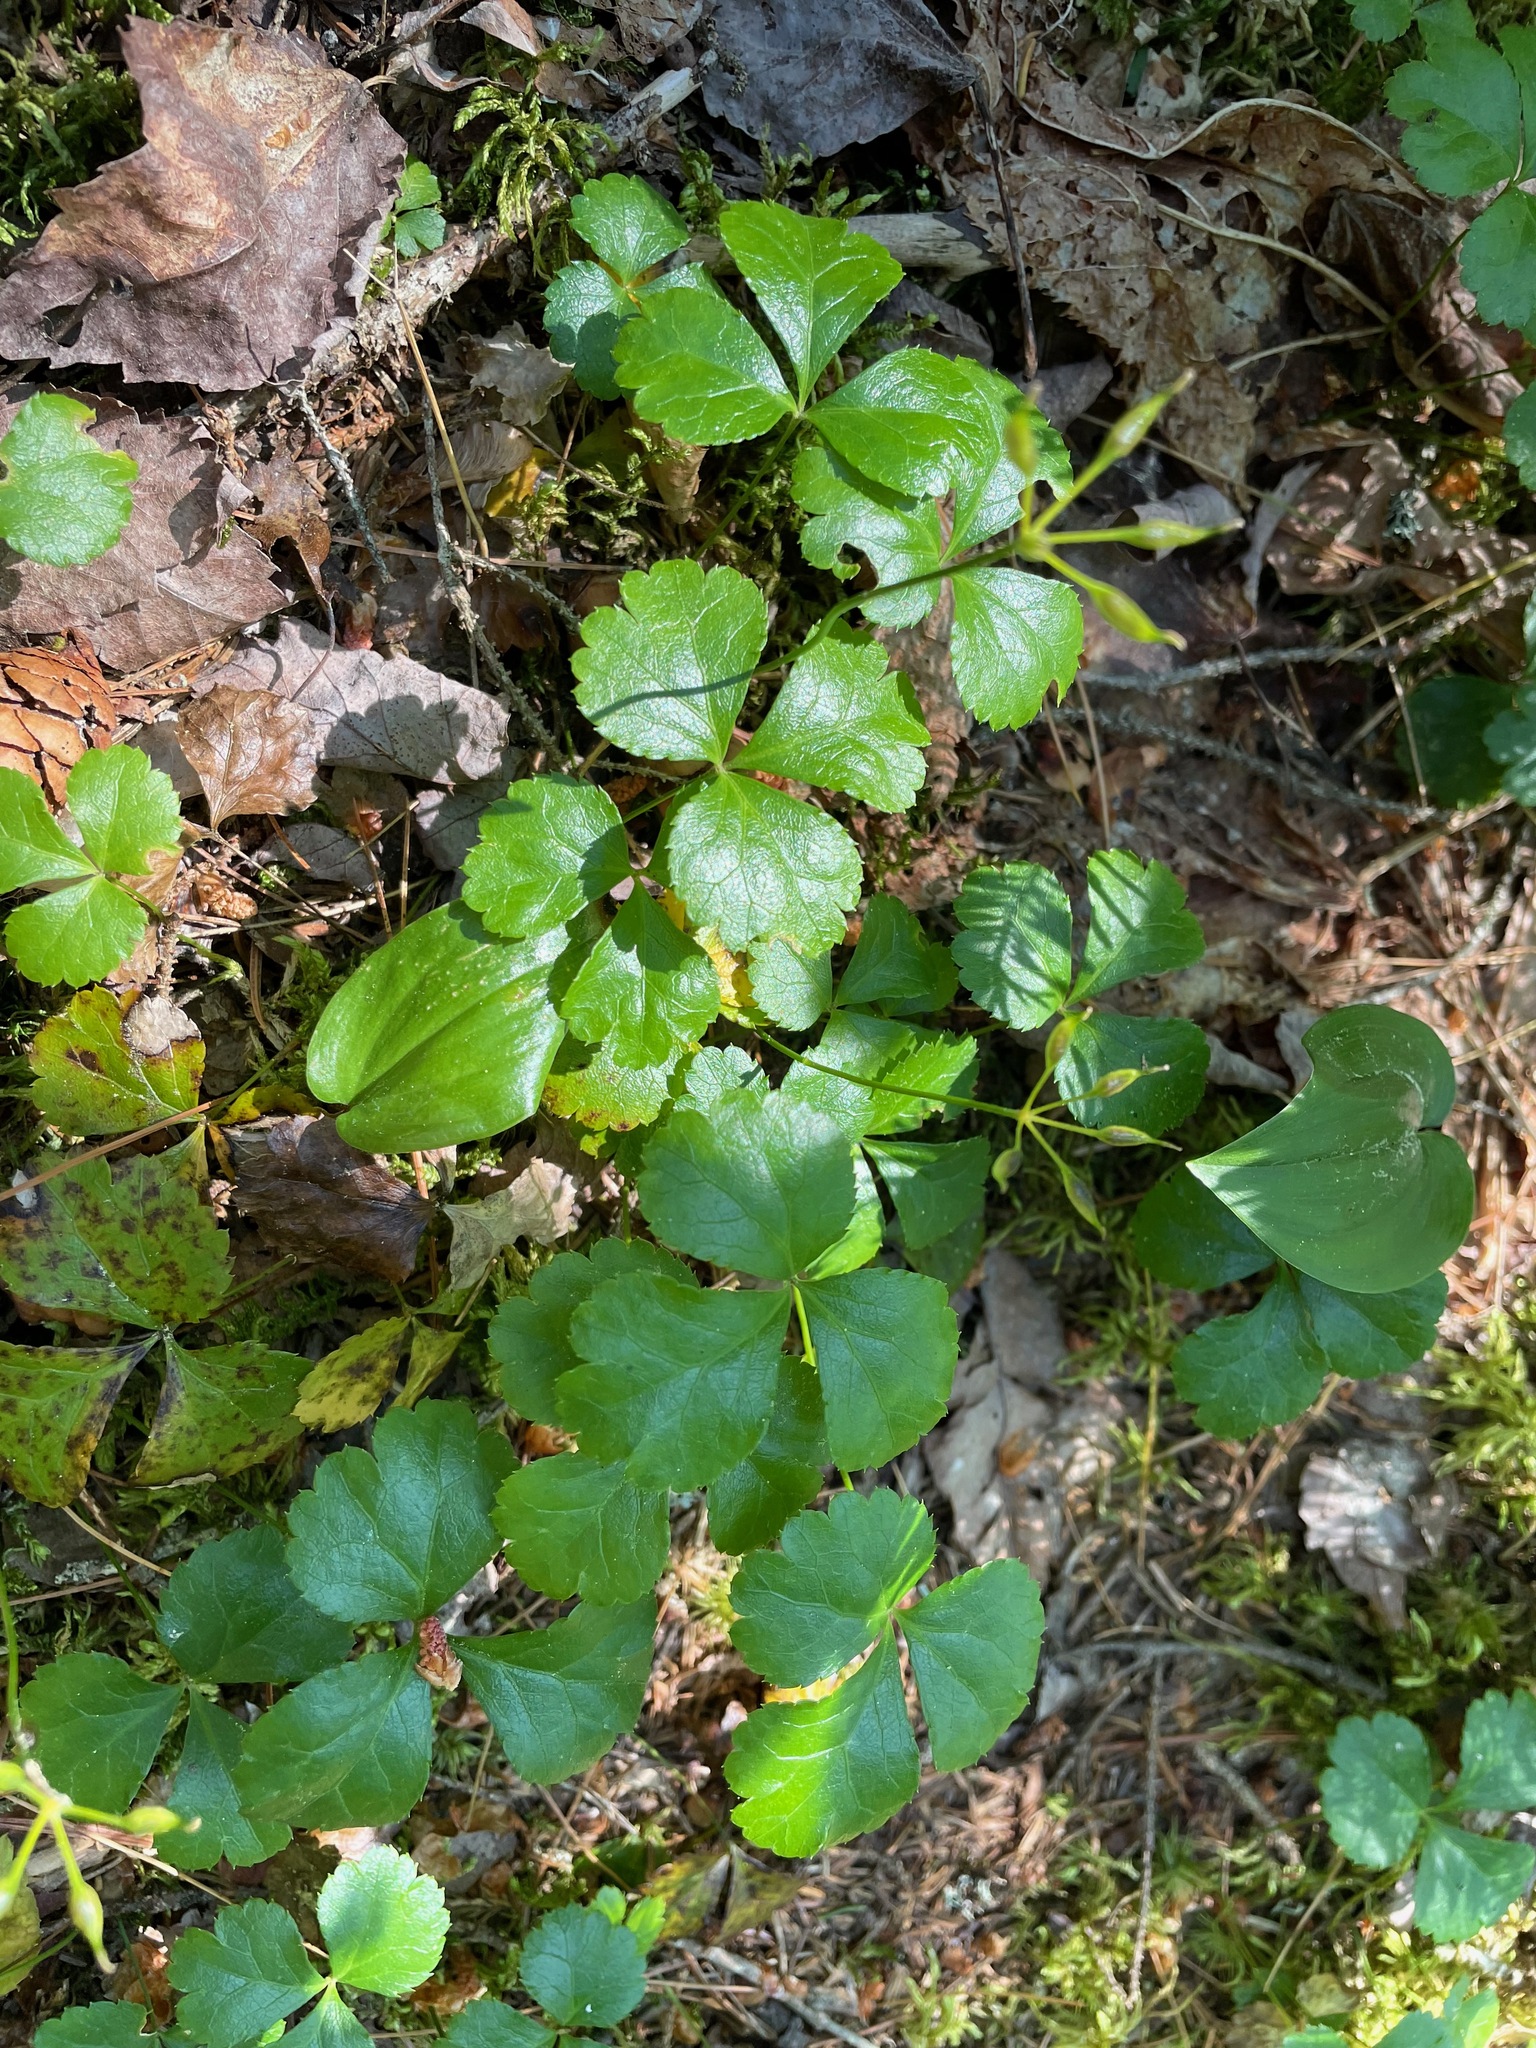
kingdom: Plantae
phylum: Tracheophyta
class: Magnoliopsida
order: Ranunculales
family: Ranunculaceae
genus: Coptis
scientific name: Coptis trifolia
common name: Canker-root
